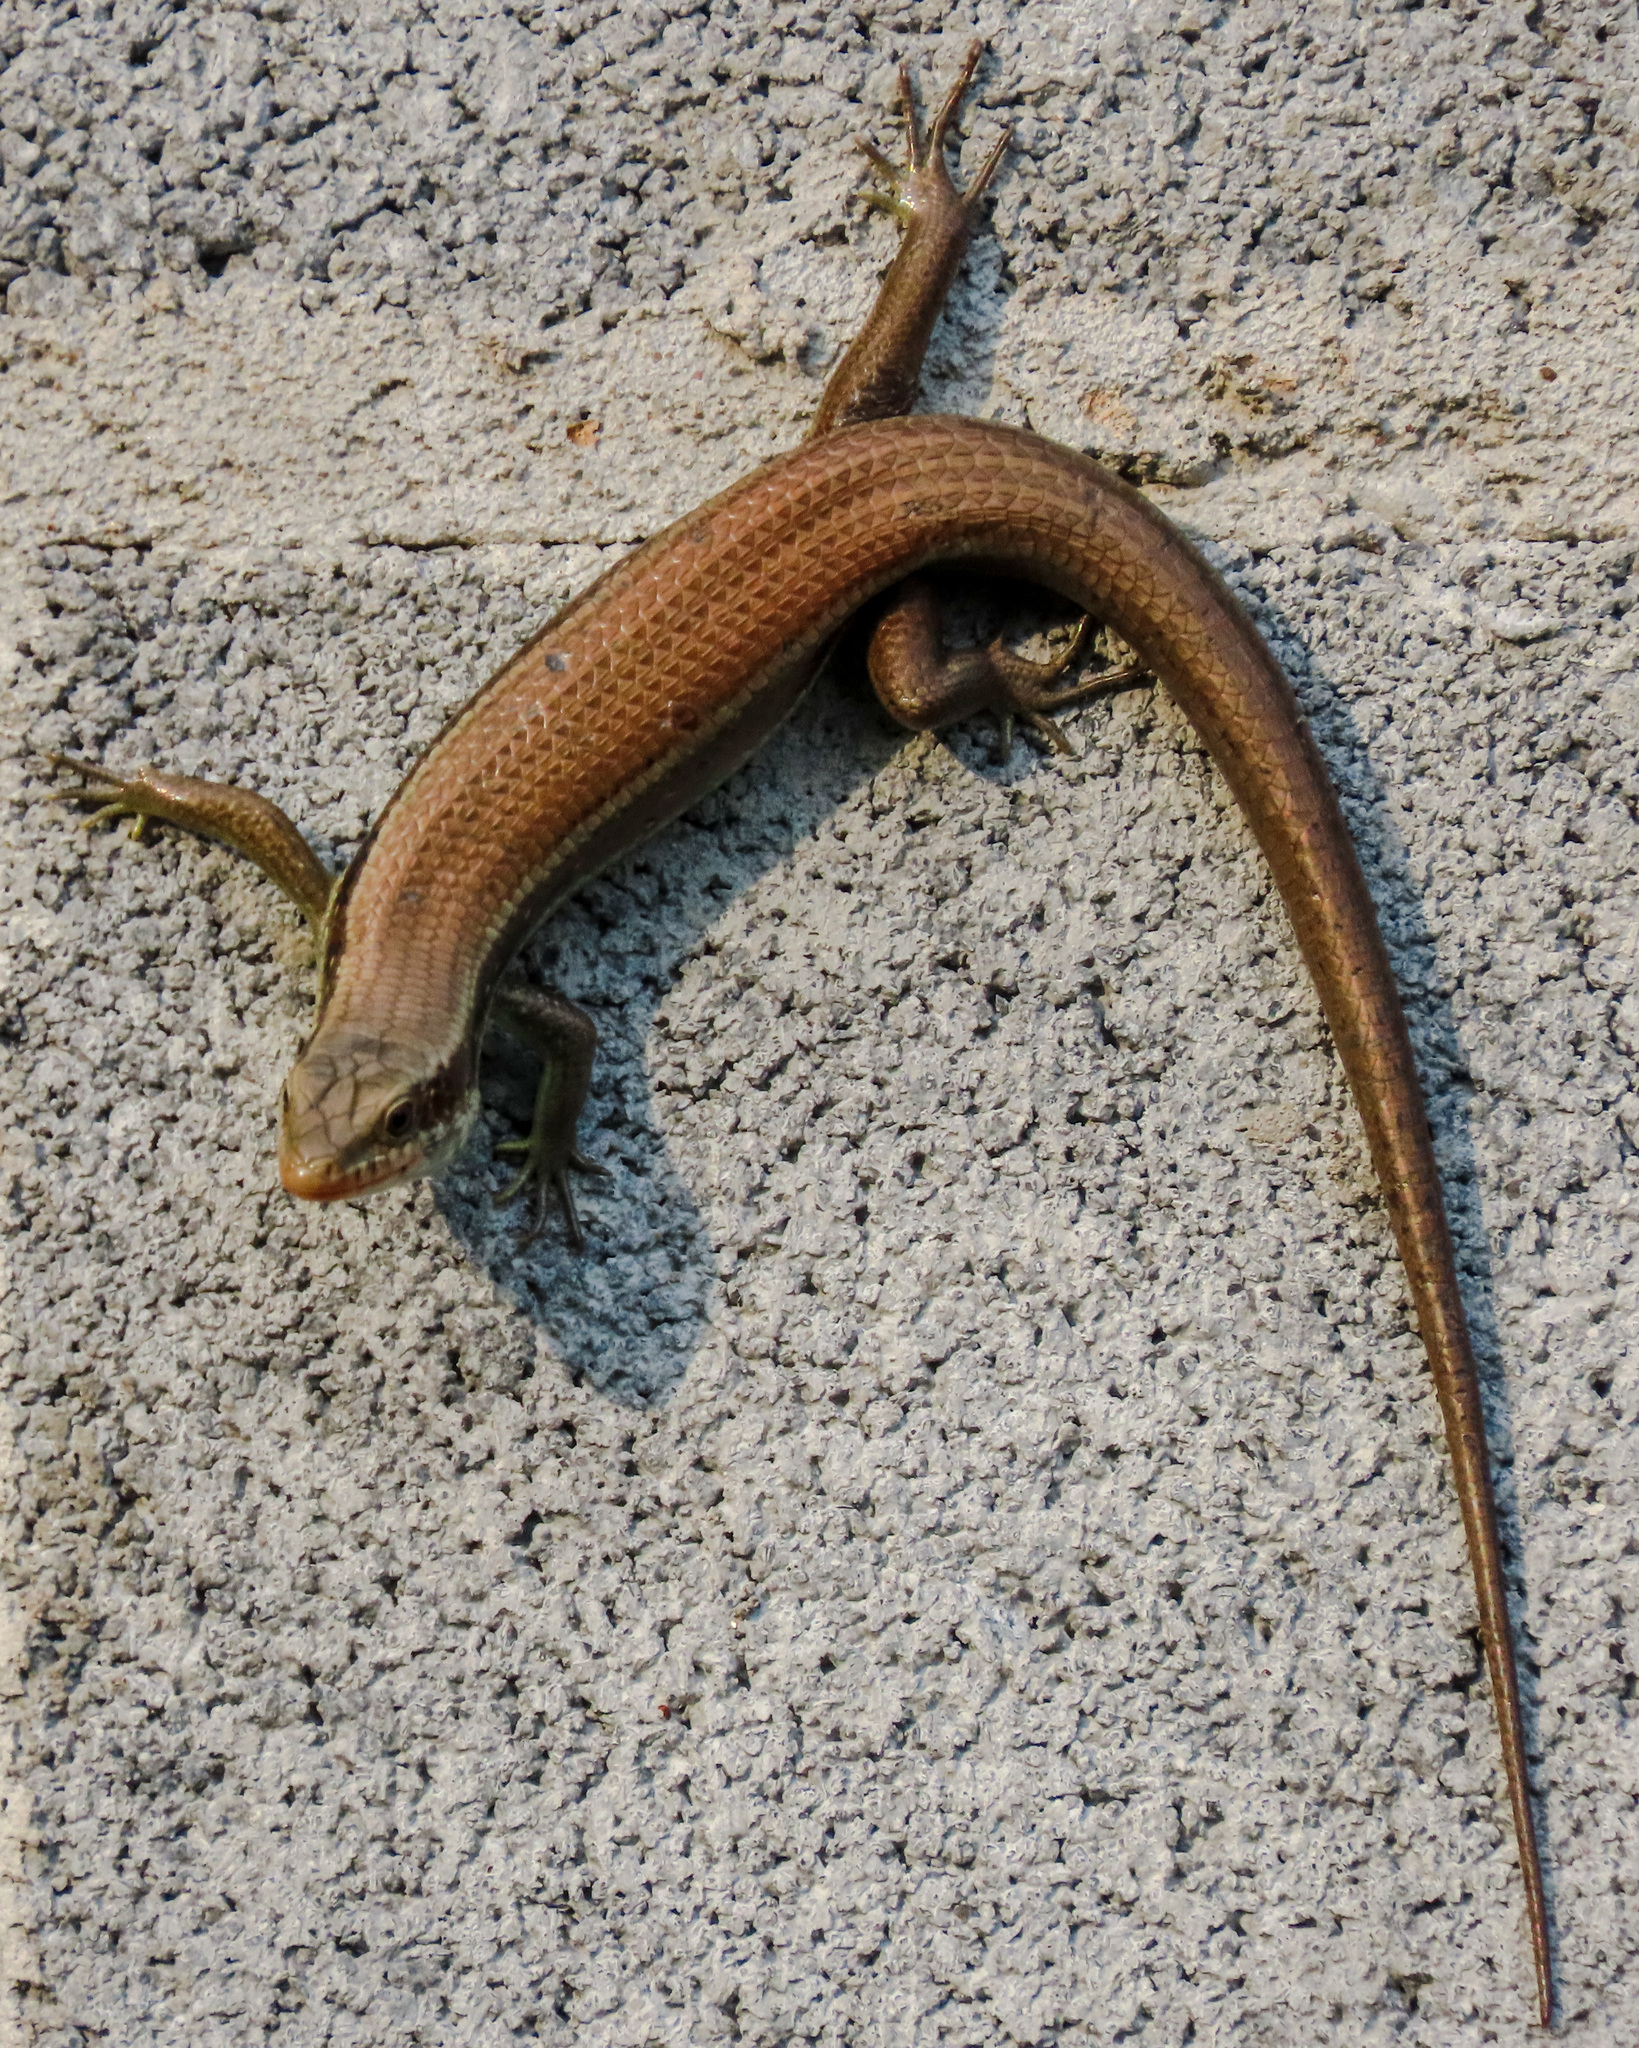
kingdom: Animalia
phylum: Chordata
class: Squamata
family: Scincidae
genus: Eutropis
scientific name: Eutropis longicaudata
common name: Long-tailed sun skink
